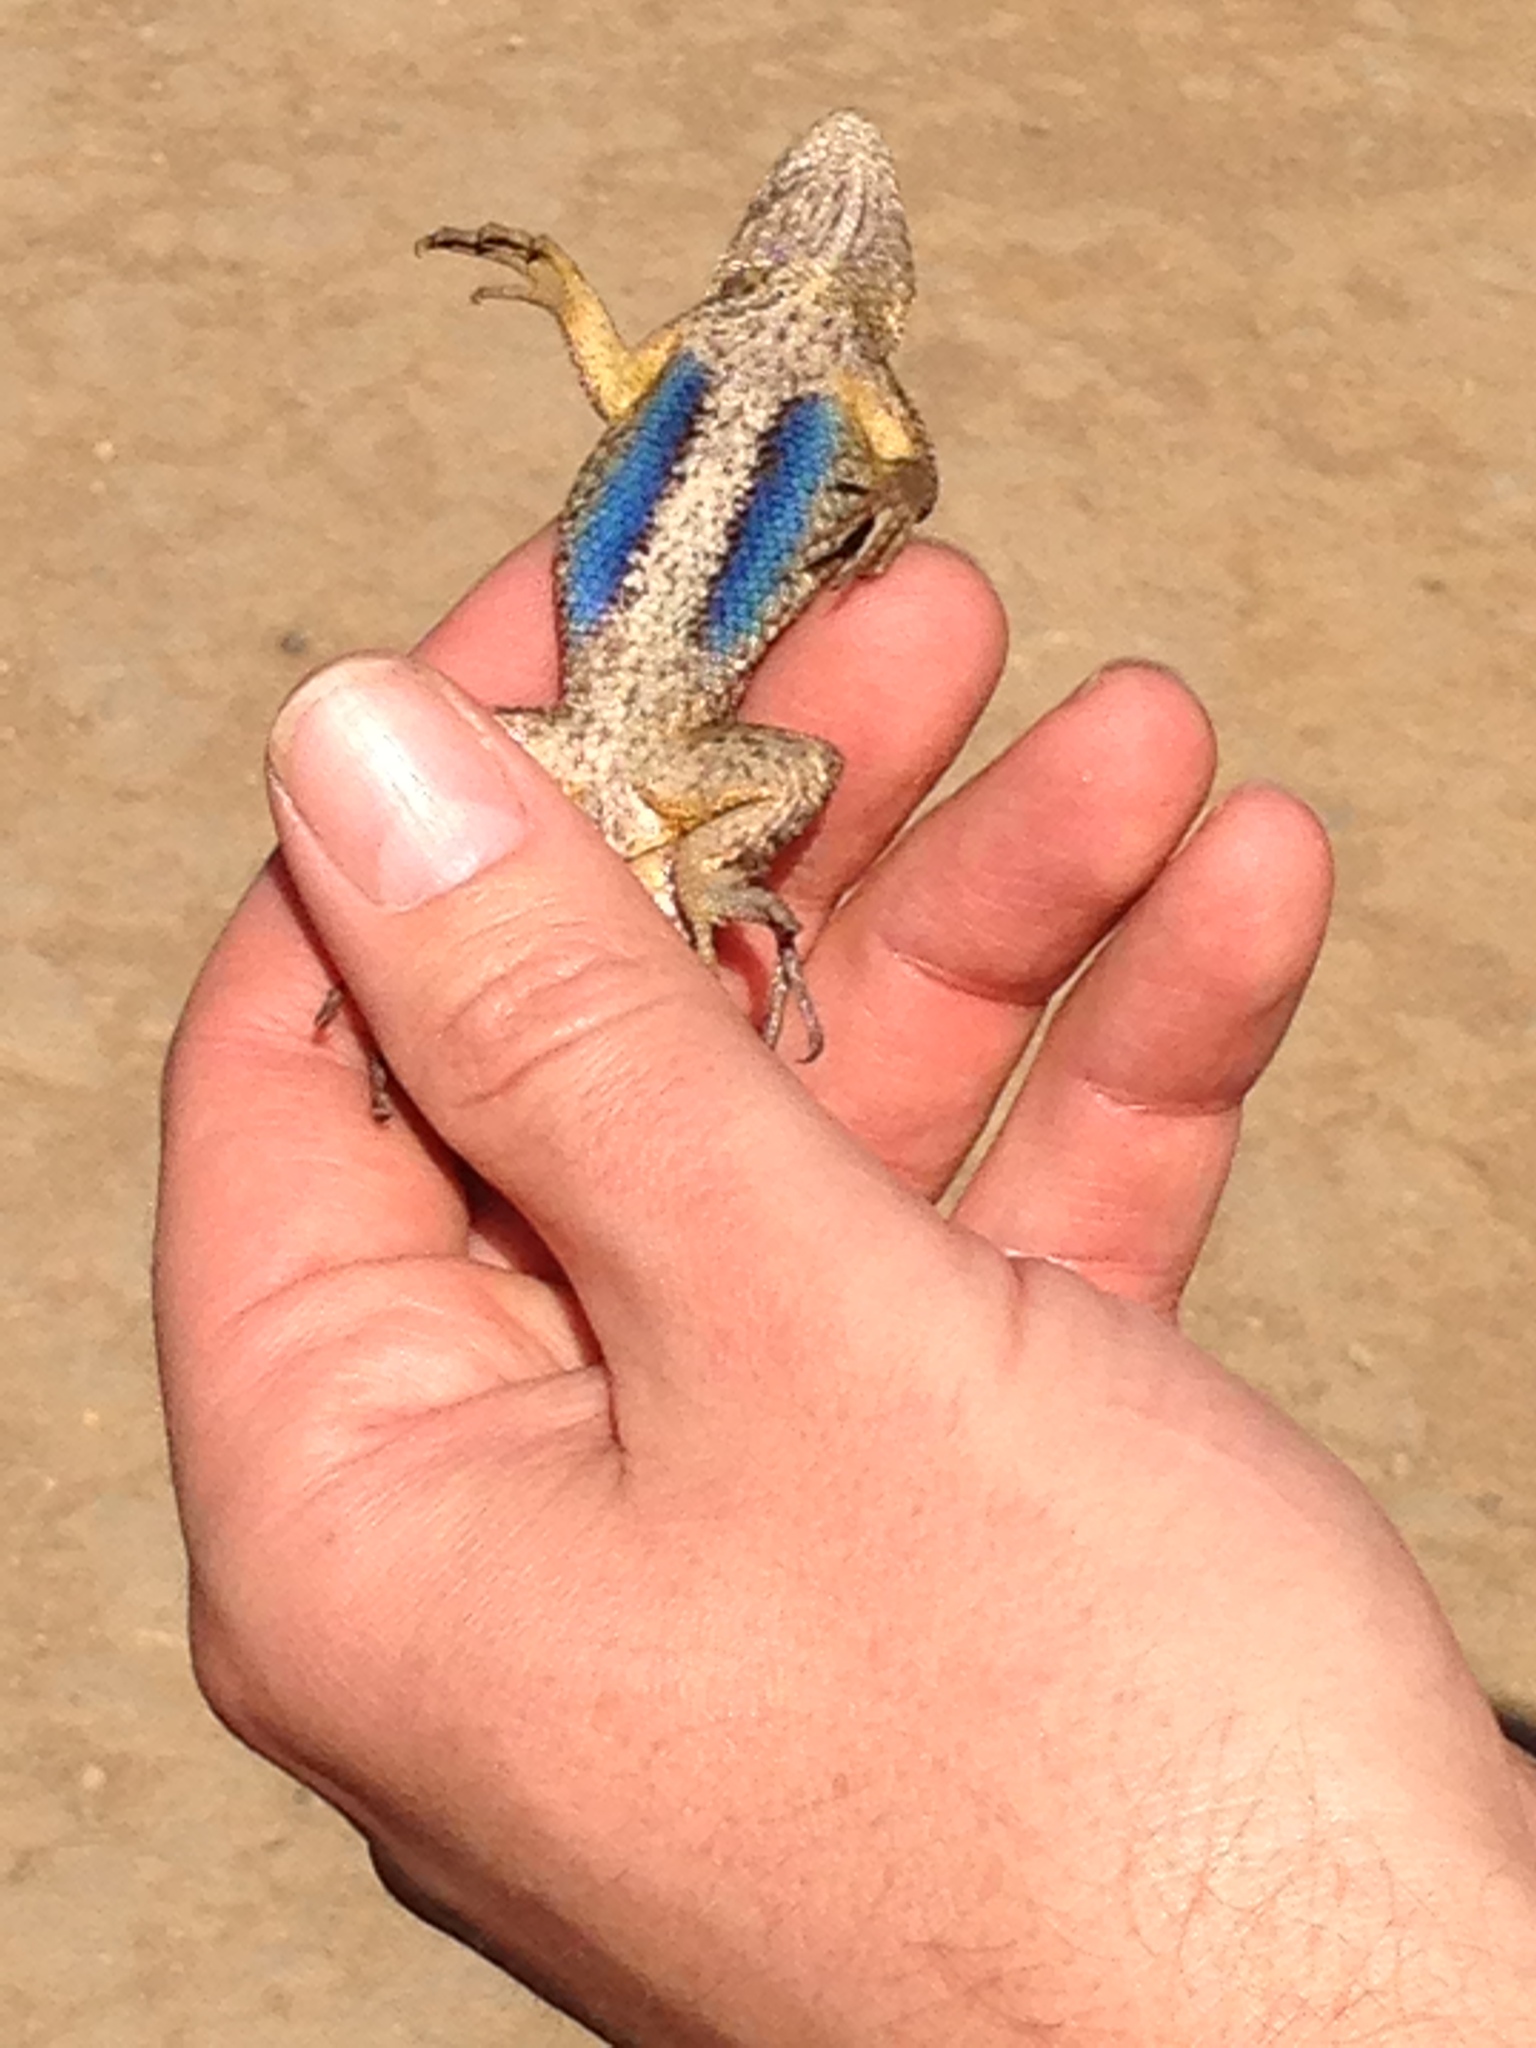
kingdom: Animalia
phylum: Chordata
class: Squamata
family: Phrynosomatidae
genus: Sceloporus
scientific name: Sceloporus occidentalis
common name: Western fence lizard
